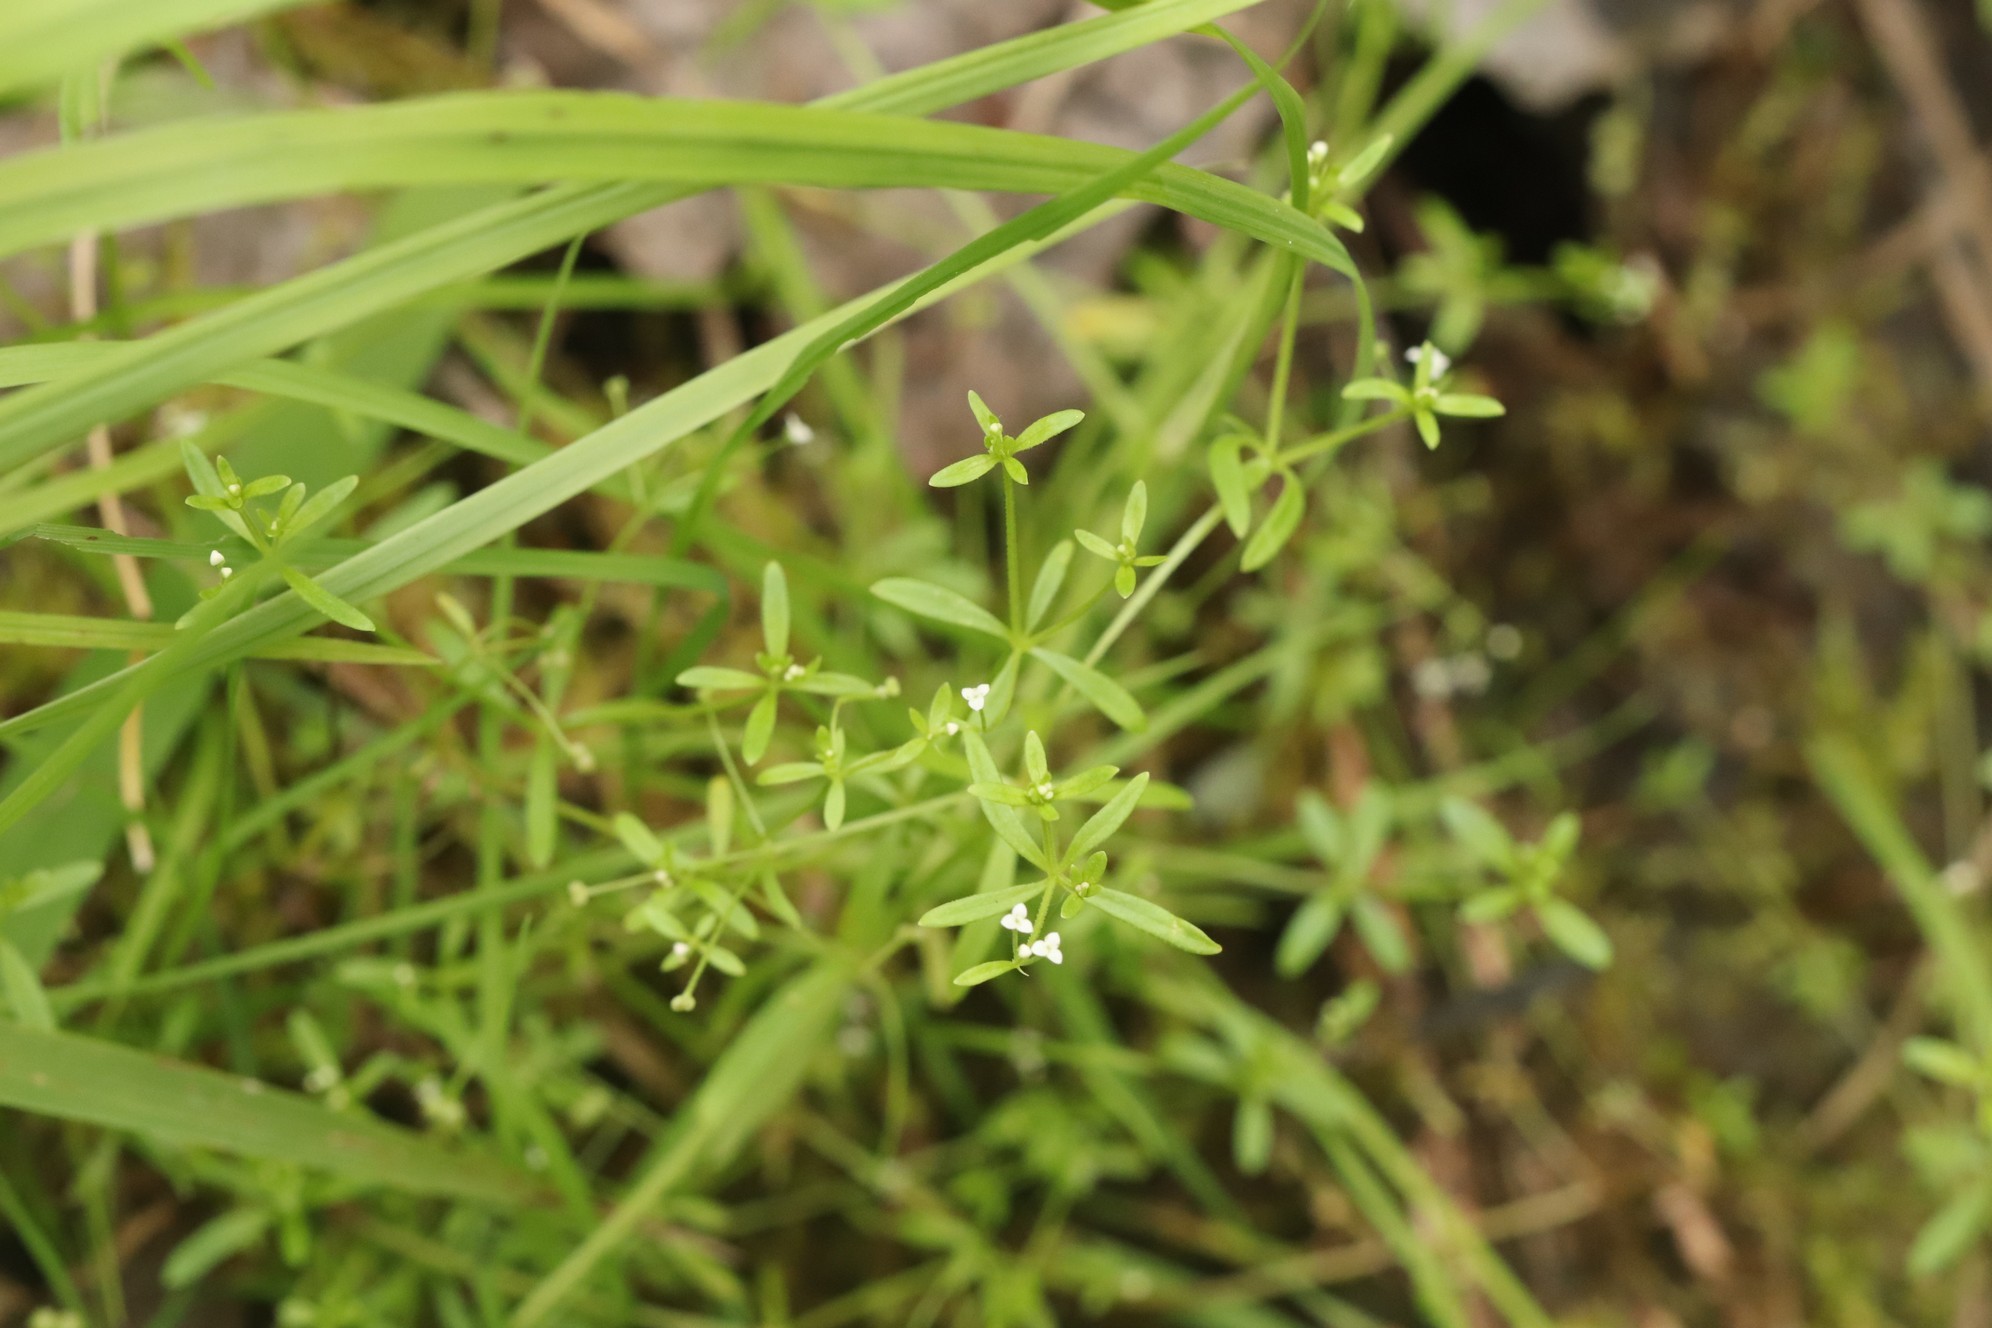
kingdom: Plantae
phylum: Tracheophyta
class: Magnoliopsida
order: Gentianales
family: Rubiaceae
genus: Galium
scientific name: Galium trifidum
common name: Small bedstraw
